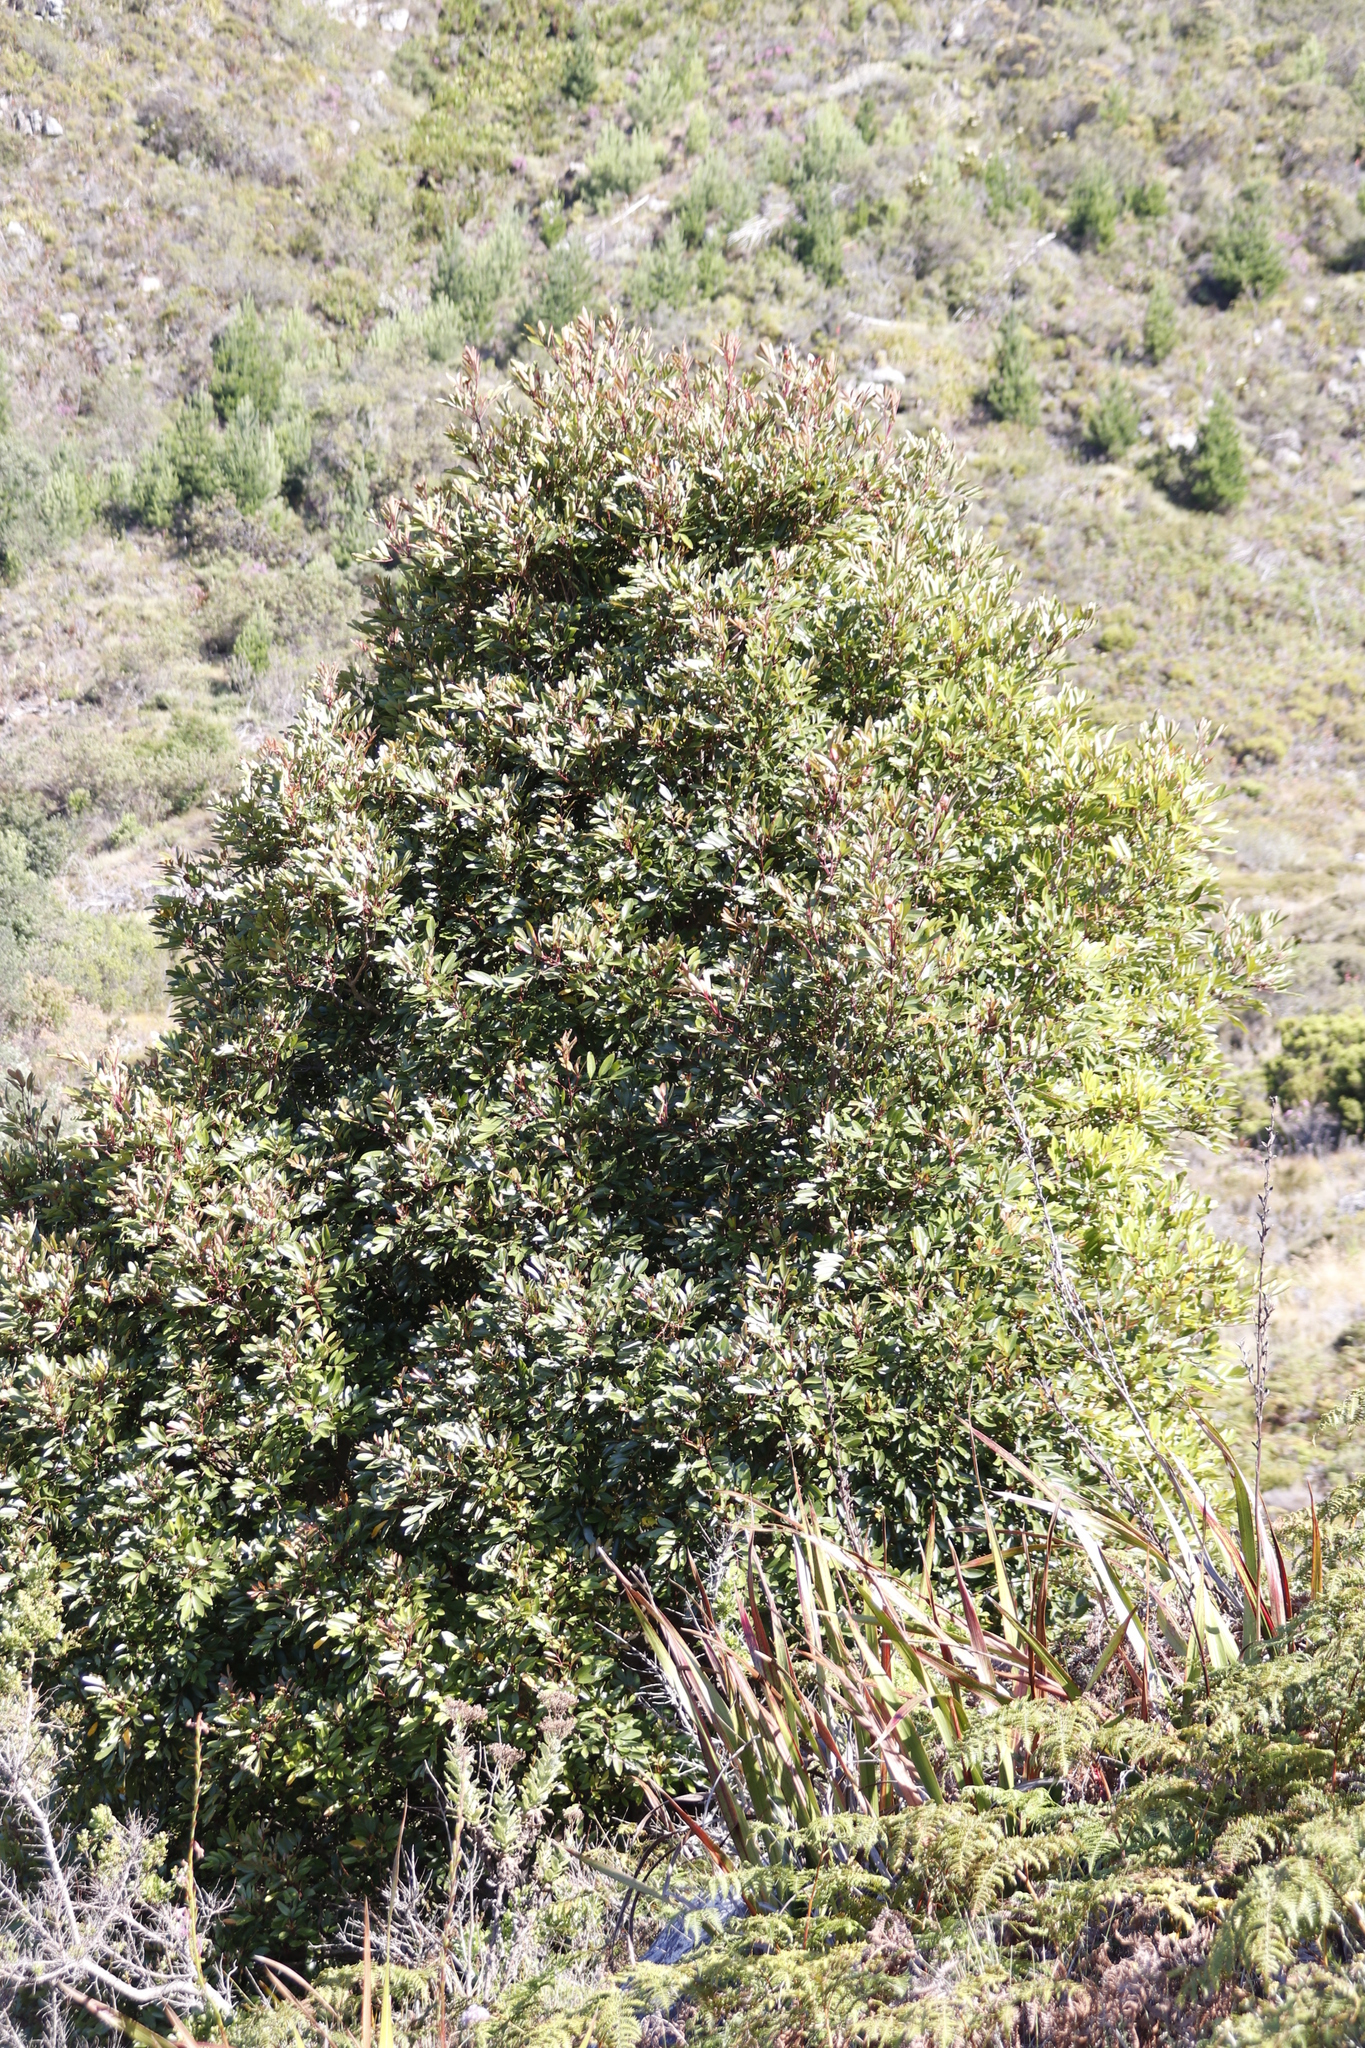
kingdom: Plantae
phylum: Tracheophyta
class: Magnoliopsida
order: Oxalidales
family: Cunoniaceae
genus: Cunonia
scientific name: Cunonia capensis
